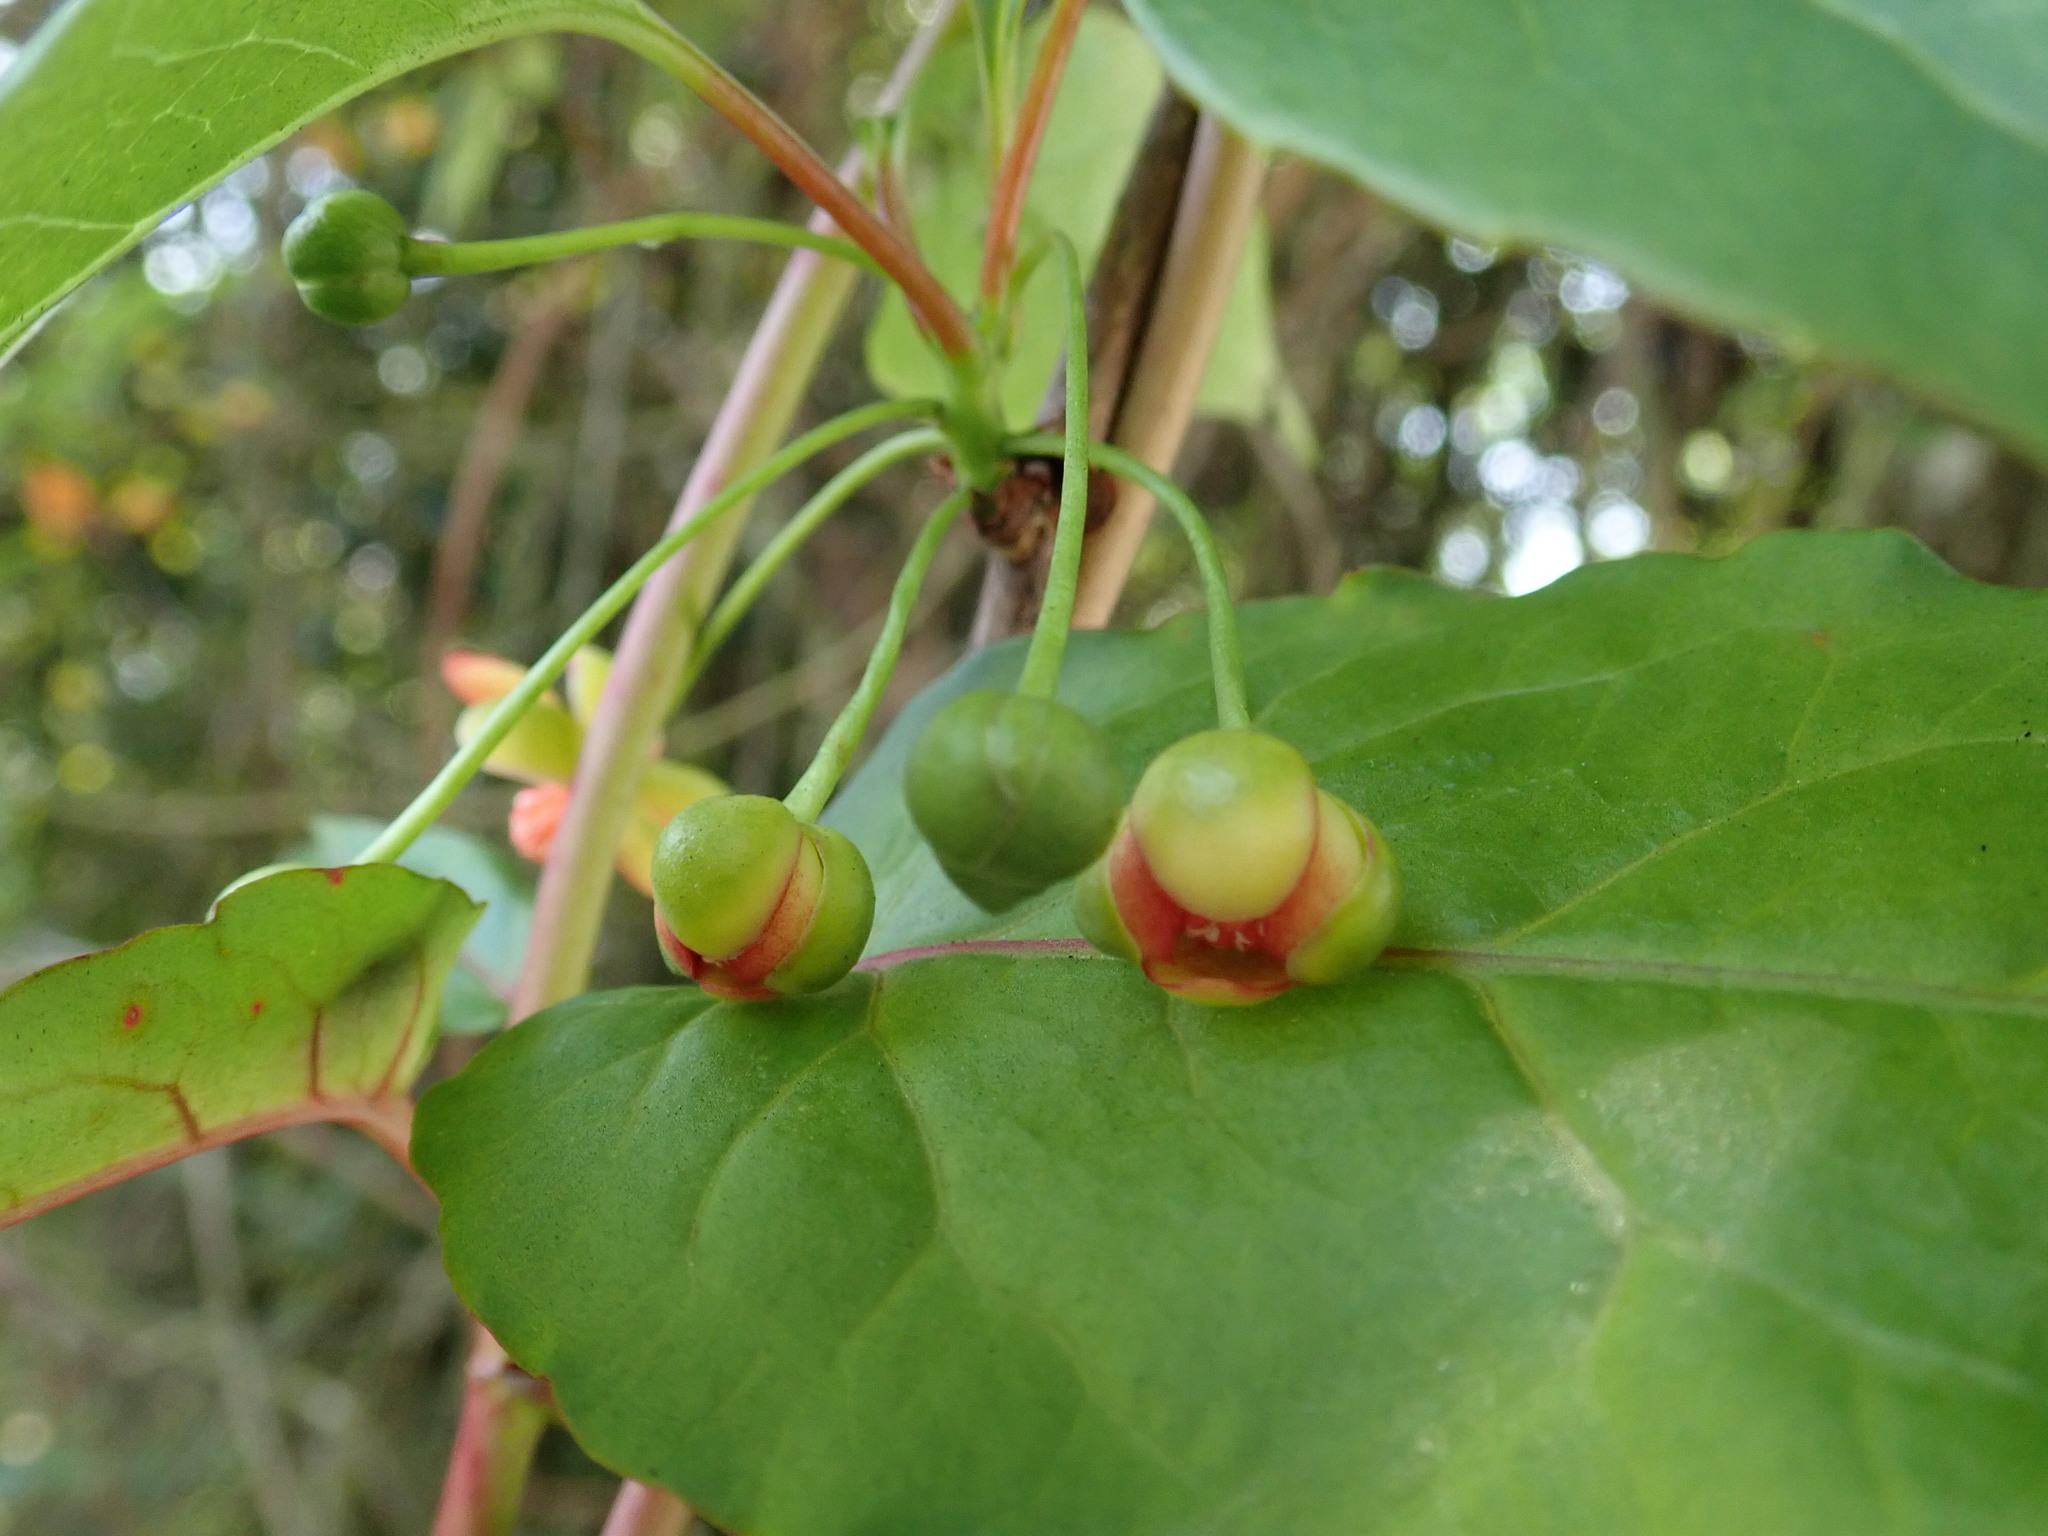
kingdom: Plantae
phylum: Tracheophyta
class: Magnoliopsida
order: Austrobaileyales
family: Schisandraceae
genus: Schisandra
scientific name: Schisandra arisanensis
